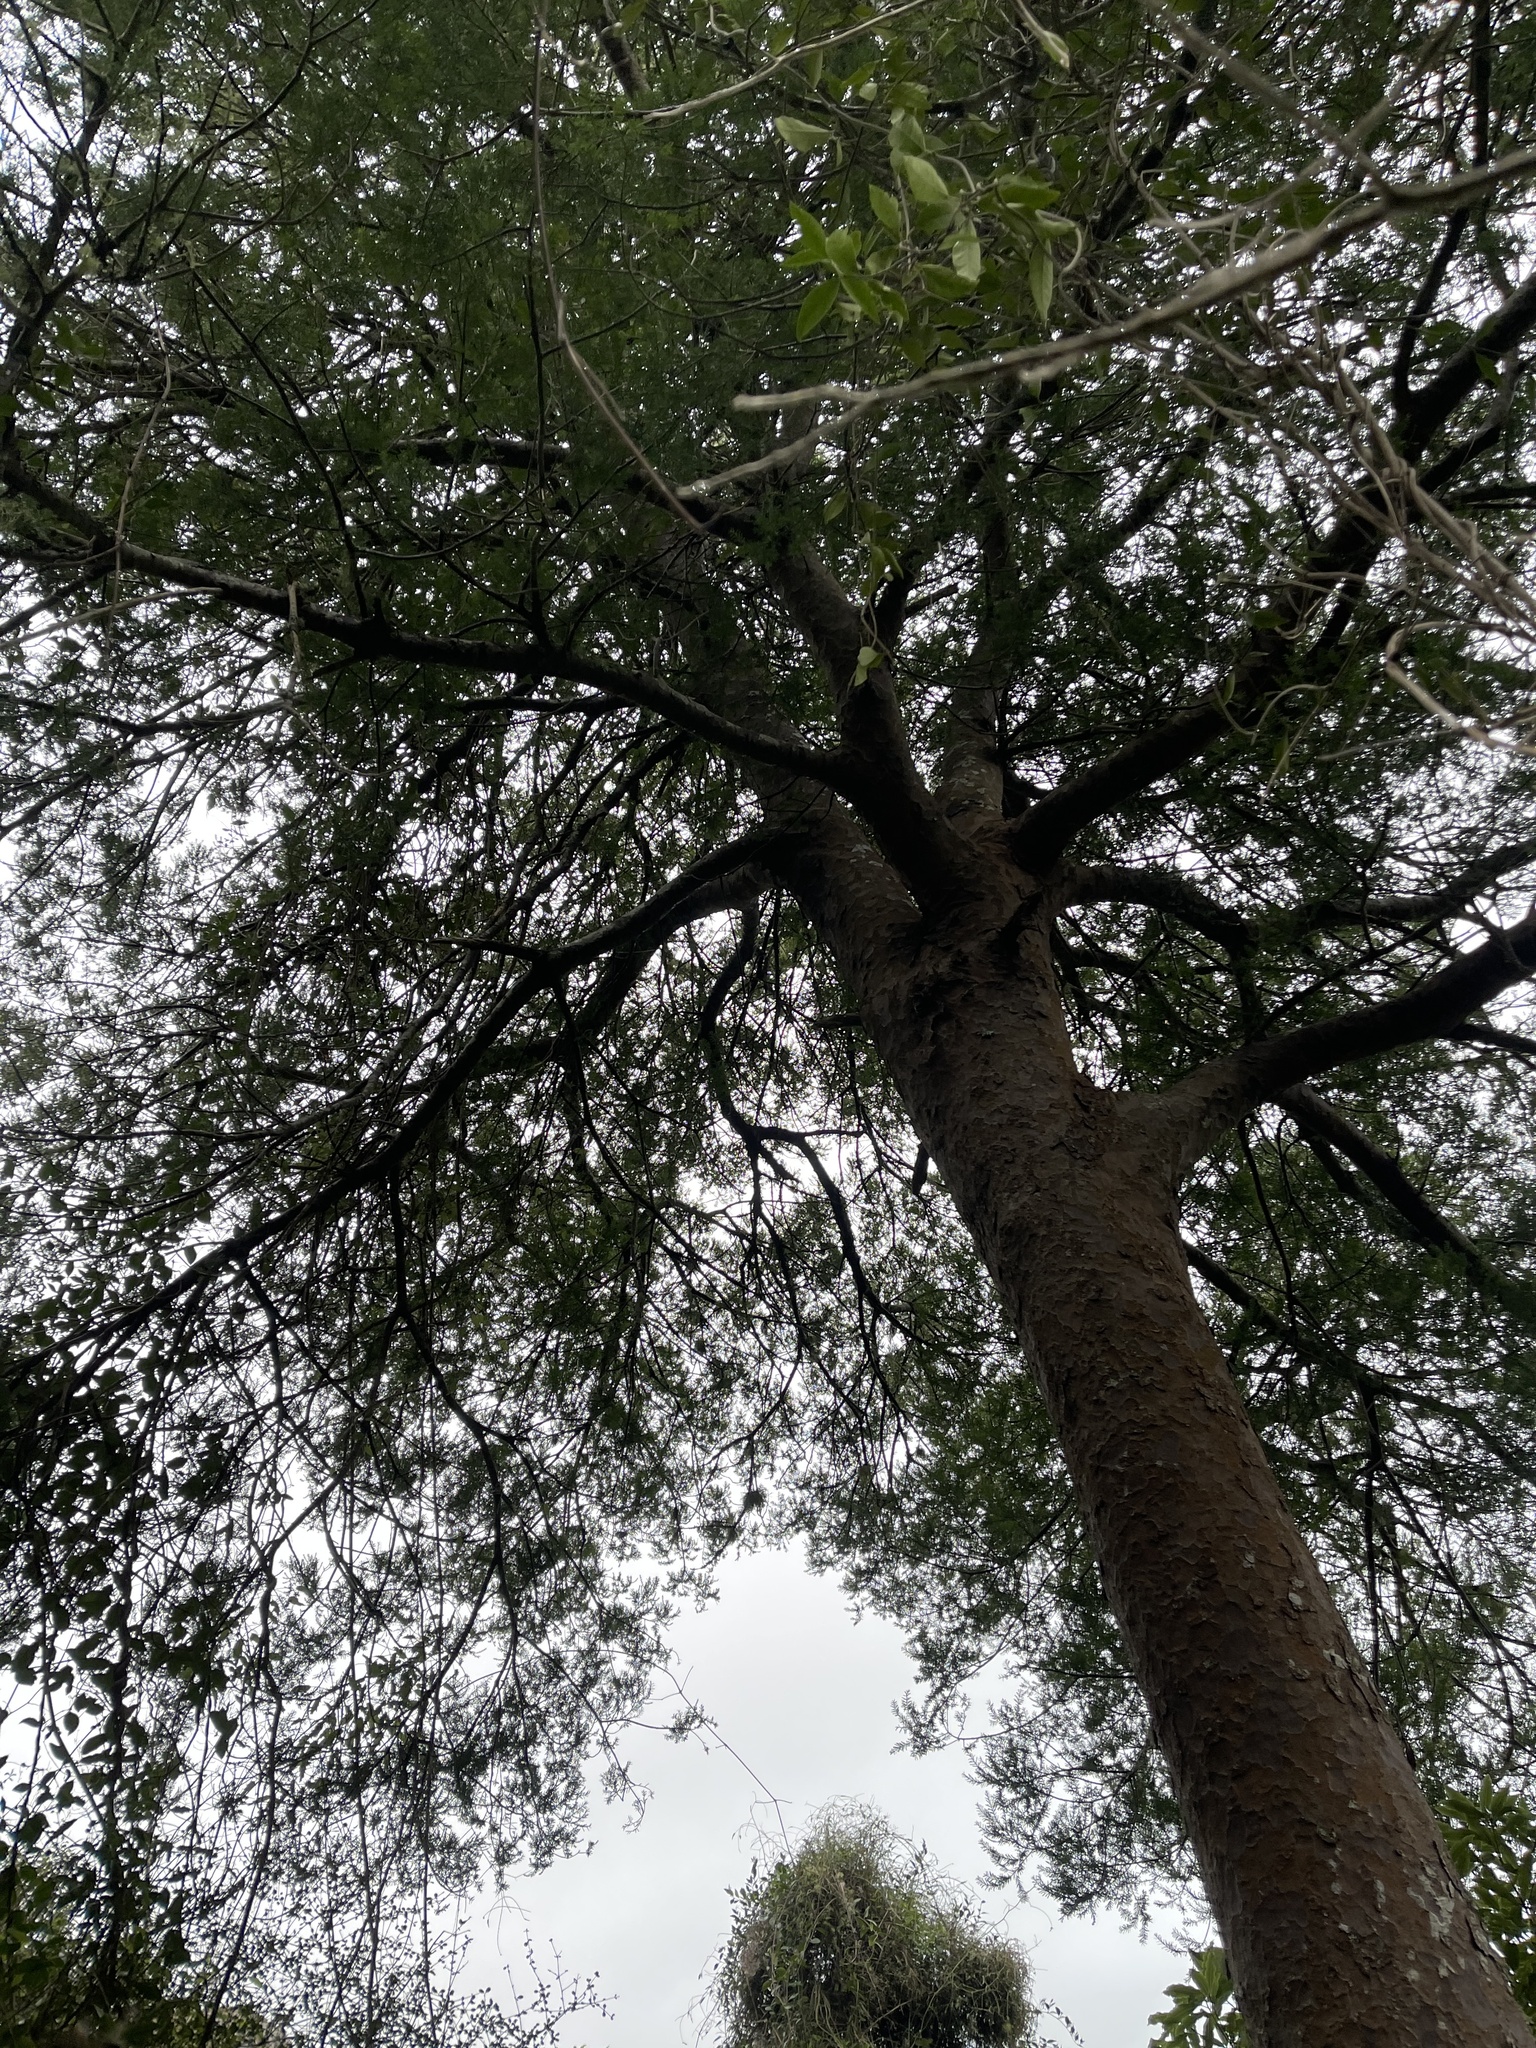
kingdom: Plantae
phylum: Tracheophyta
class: Pinopsida
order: Pinales
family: Podocarpaceae
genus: Prumnopitys
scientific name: Prumnopitys taxifolia
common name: Matai
